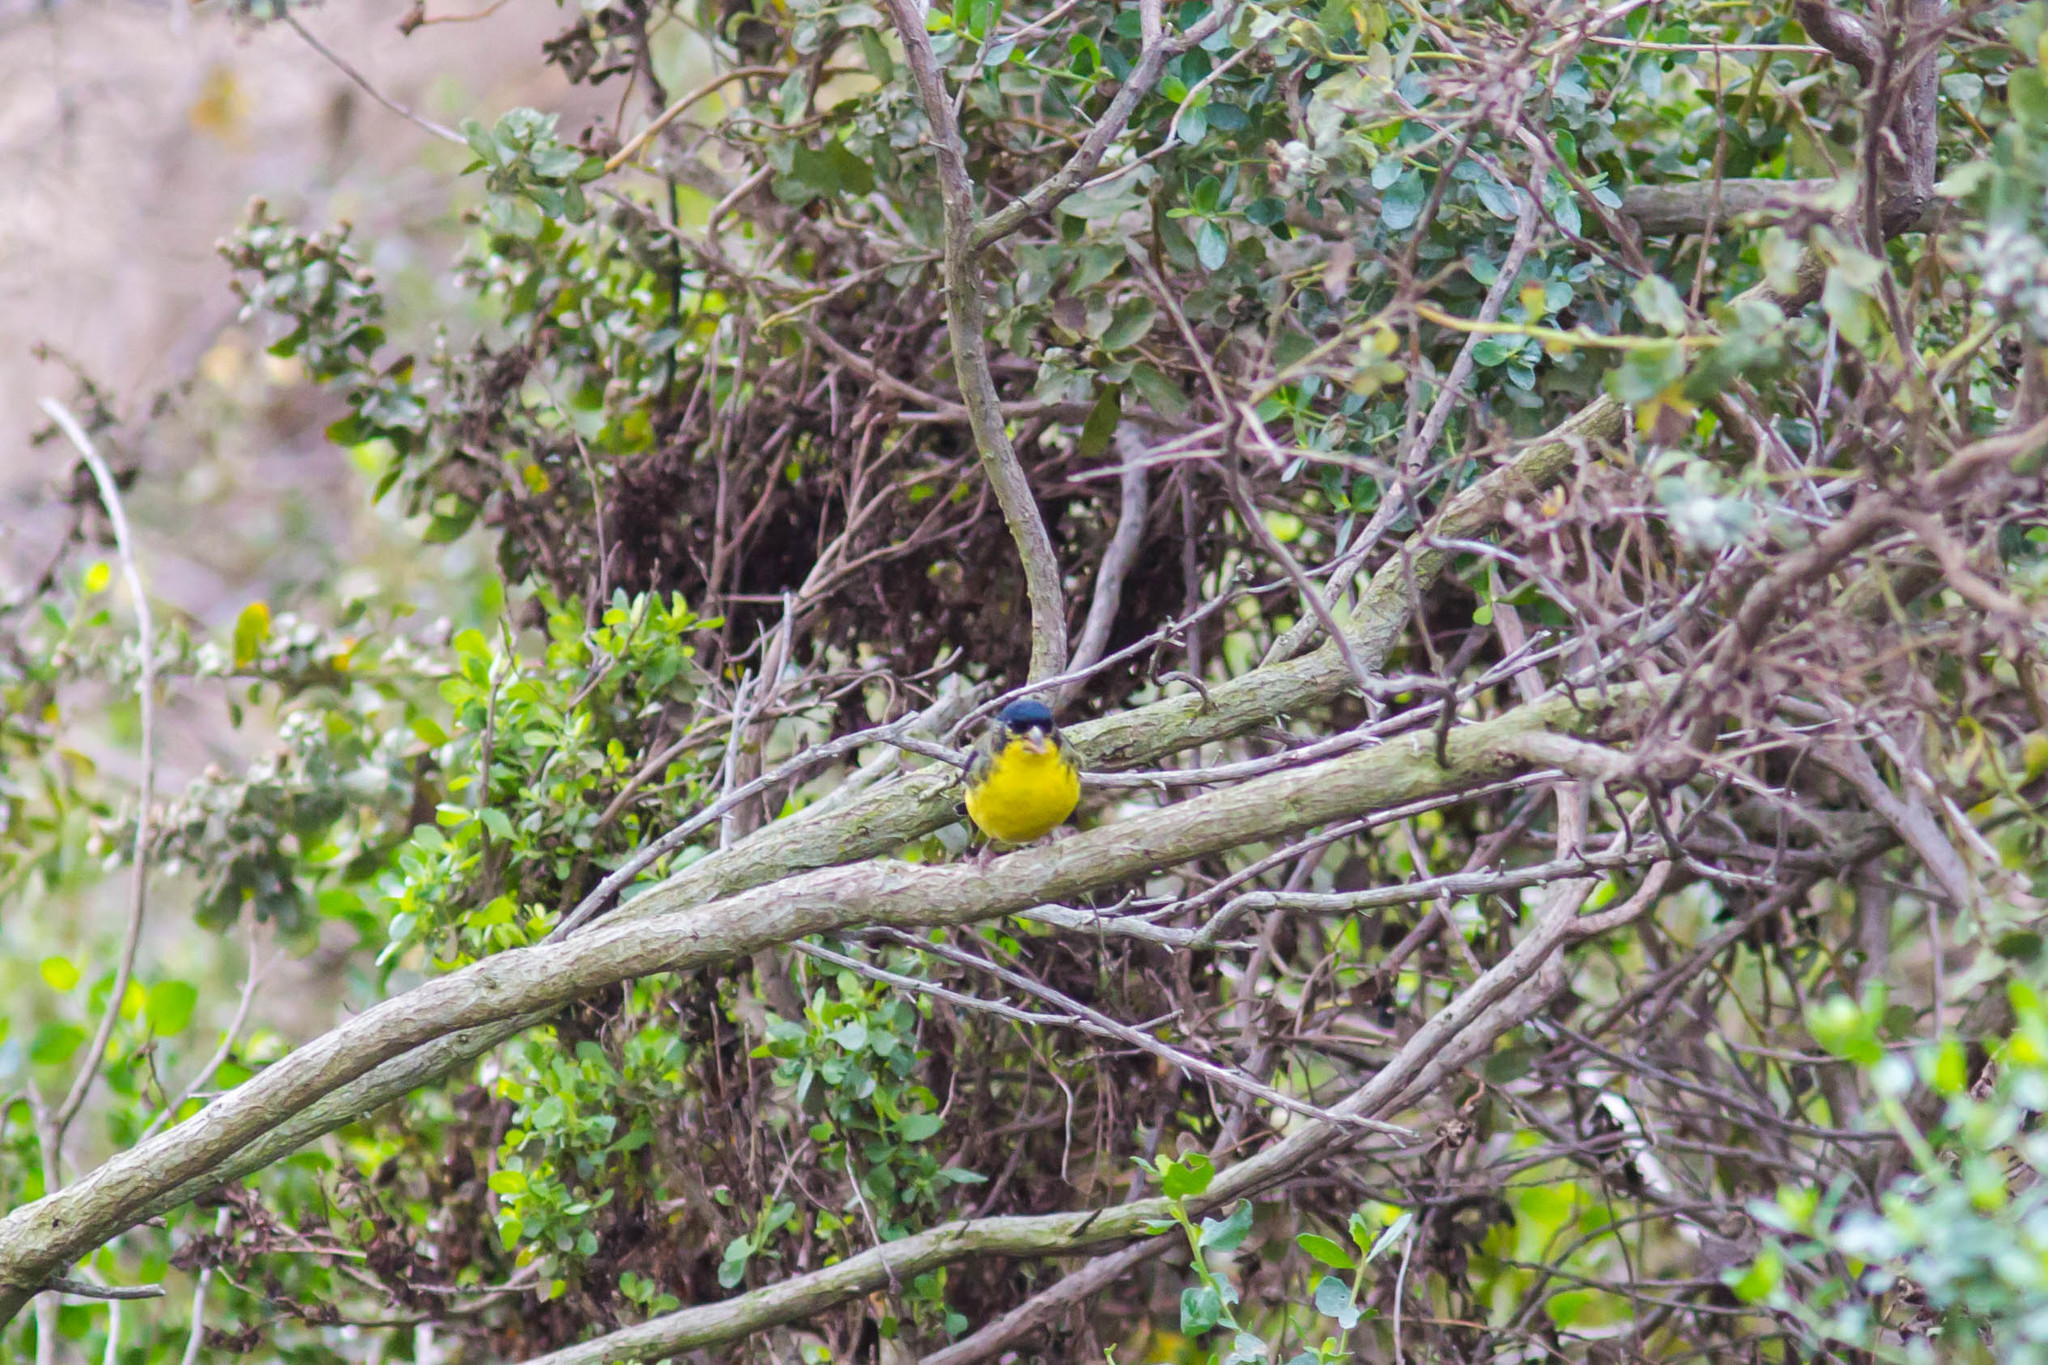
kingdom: Animalia
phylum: Chordata
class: Aves
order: Passeriformes
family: Fringillidae
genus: Spinus
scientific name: Spinus psaltria
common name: Lesser goldfinch
